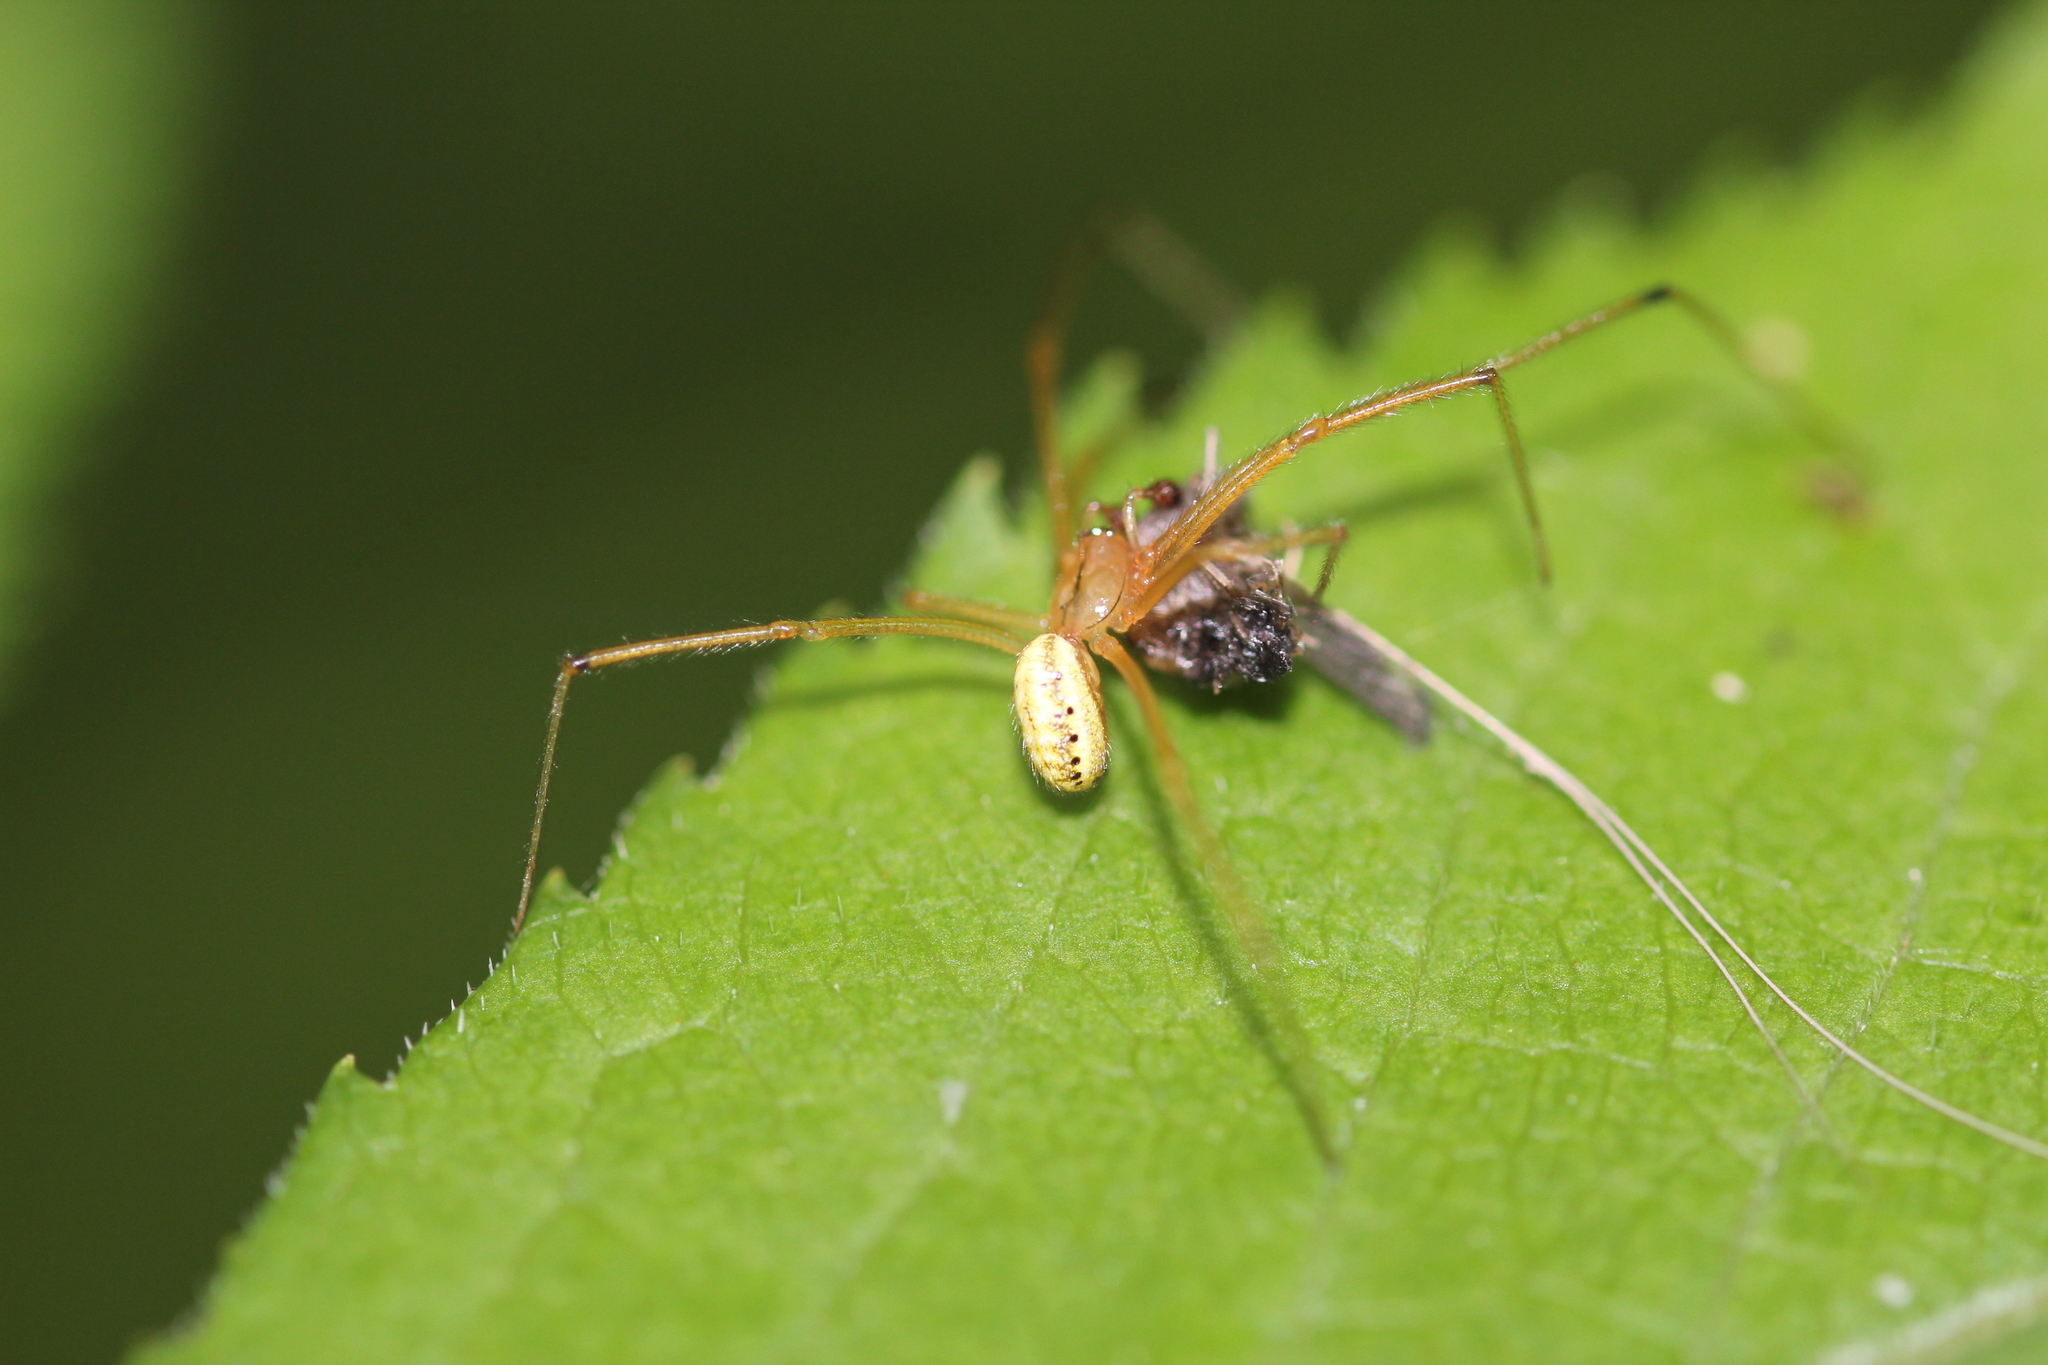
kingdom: Animalia
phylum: Arthropoda
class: Arachnida
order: Araneae
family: Theridiidae
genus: Enoplognatha
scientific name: Enoplognatha ovata
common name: Common candy-striped spider
